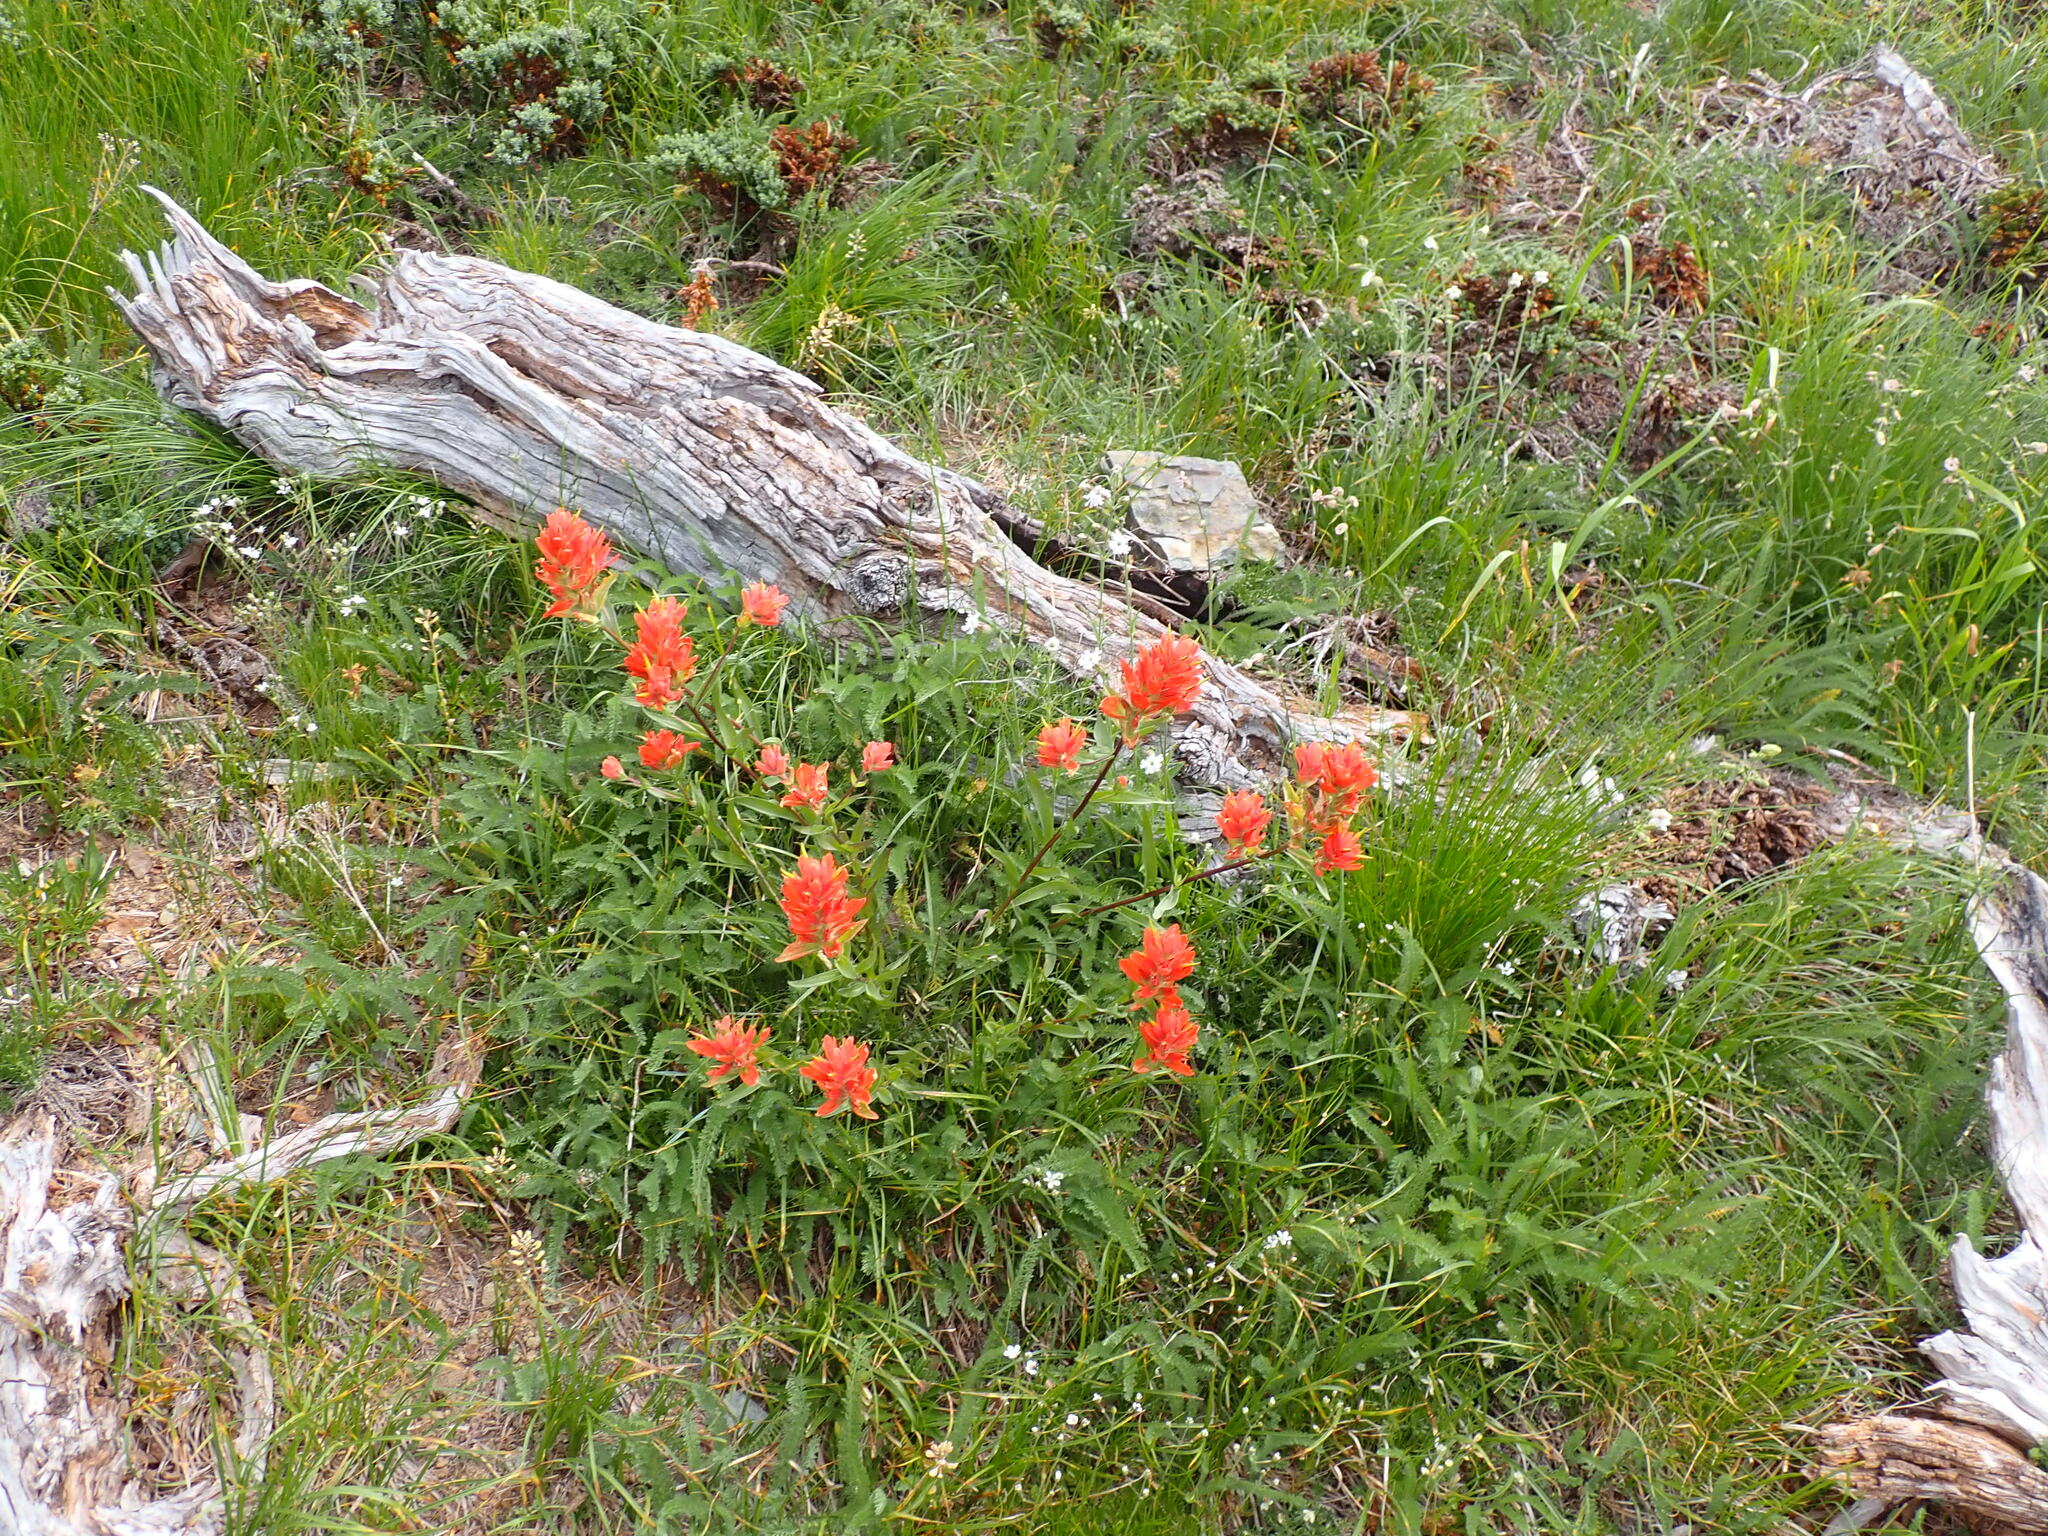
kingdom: Plantae
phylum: Tracheophyta
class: Magnoliopsida
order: Lamiales
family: Orobanchaceae
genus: Castilleja
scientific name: Castilleja miniata
